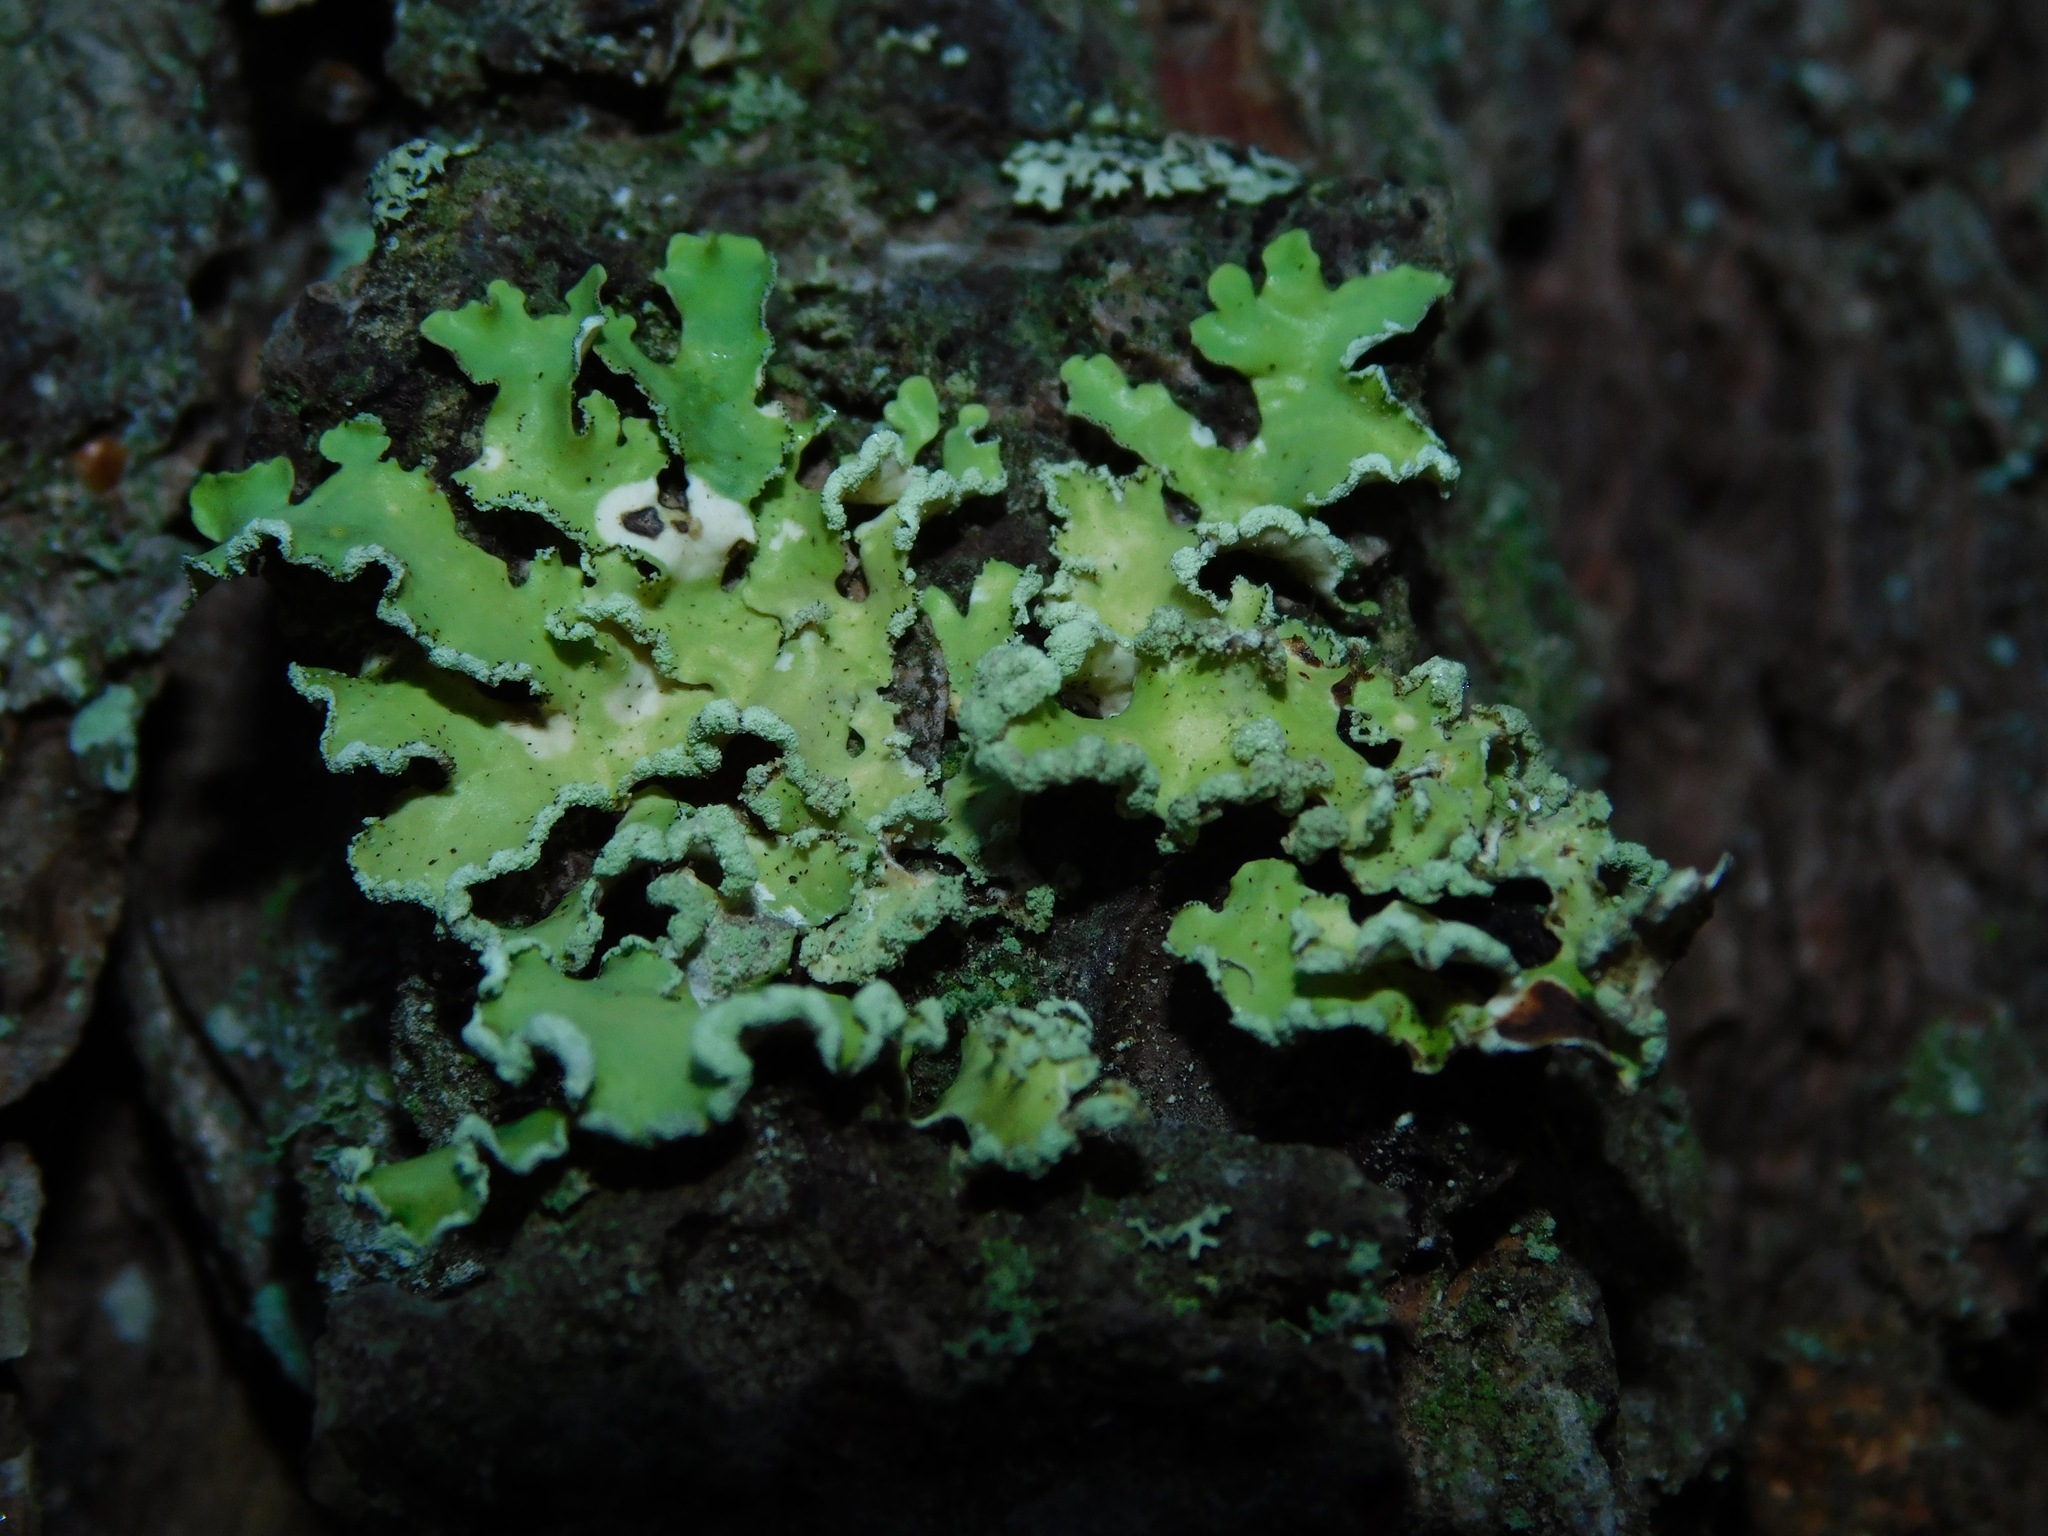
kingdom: Fungi
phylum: Ascomycota
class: Lecanoromycetes
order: Lecanorales
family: Parmeliaceae
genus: Usnocetraria
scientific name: Usnocetraria oakesiana
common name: Yellow ribbon lichen
